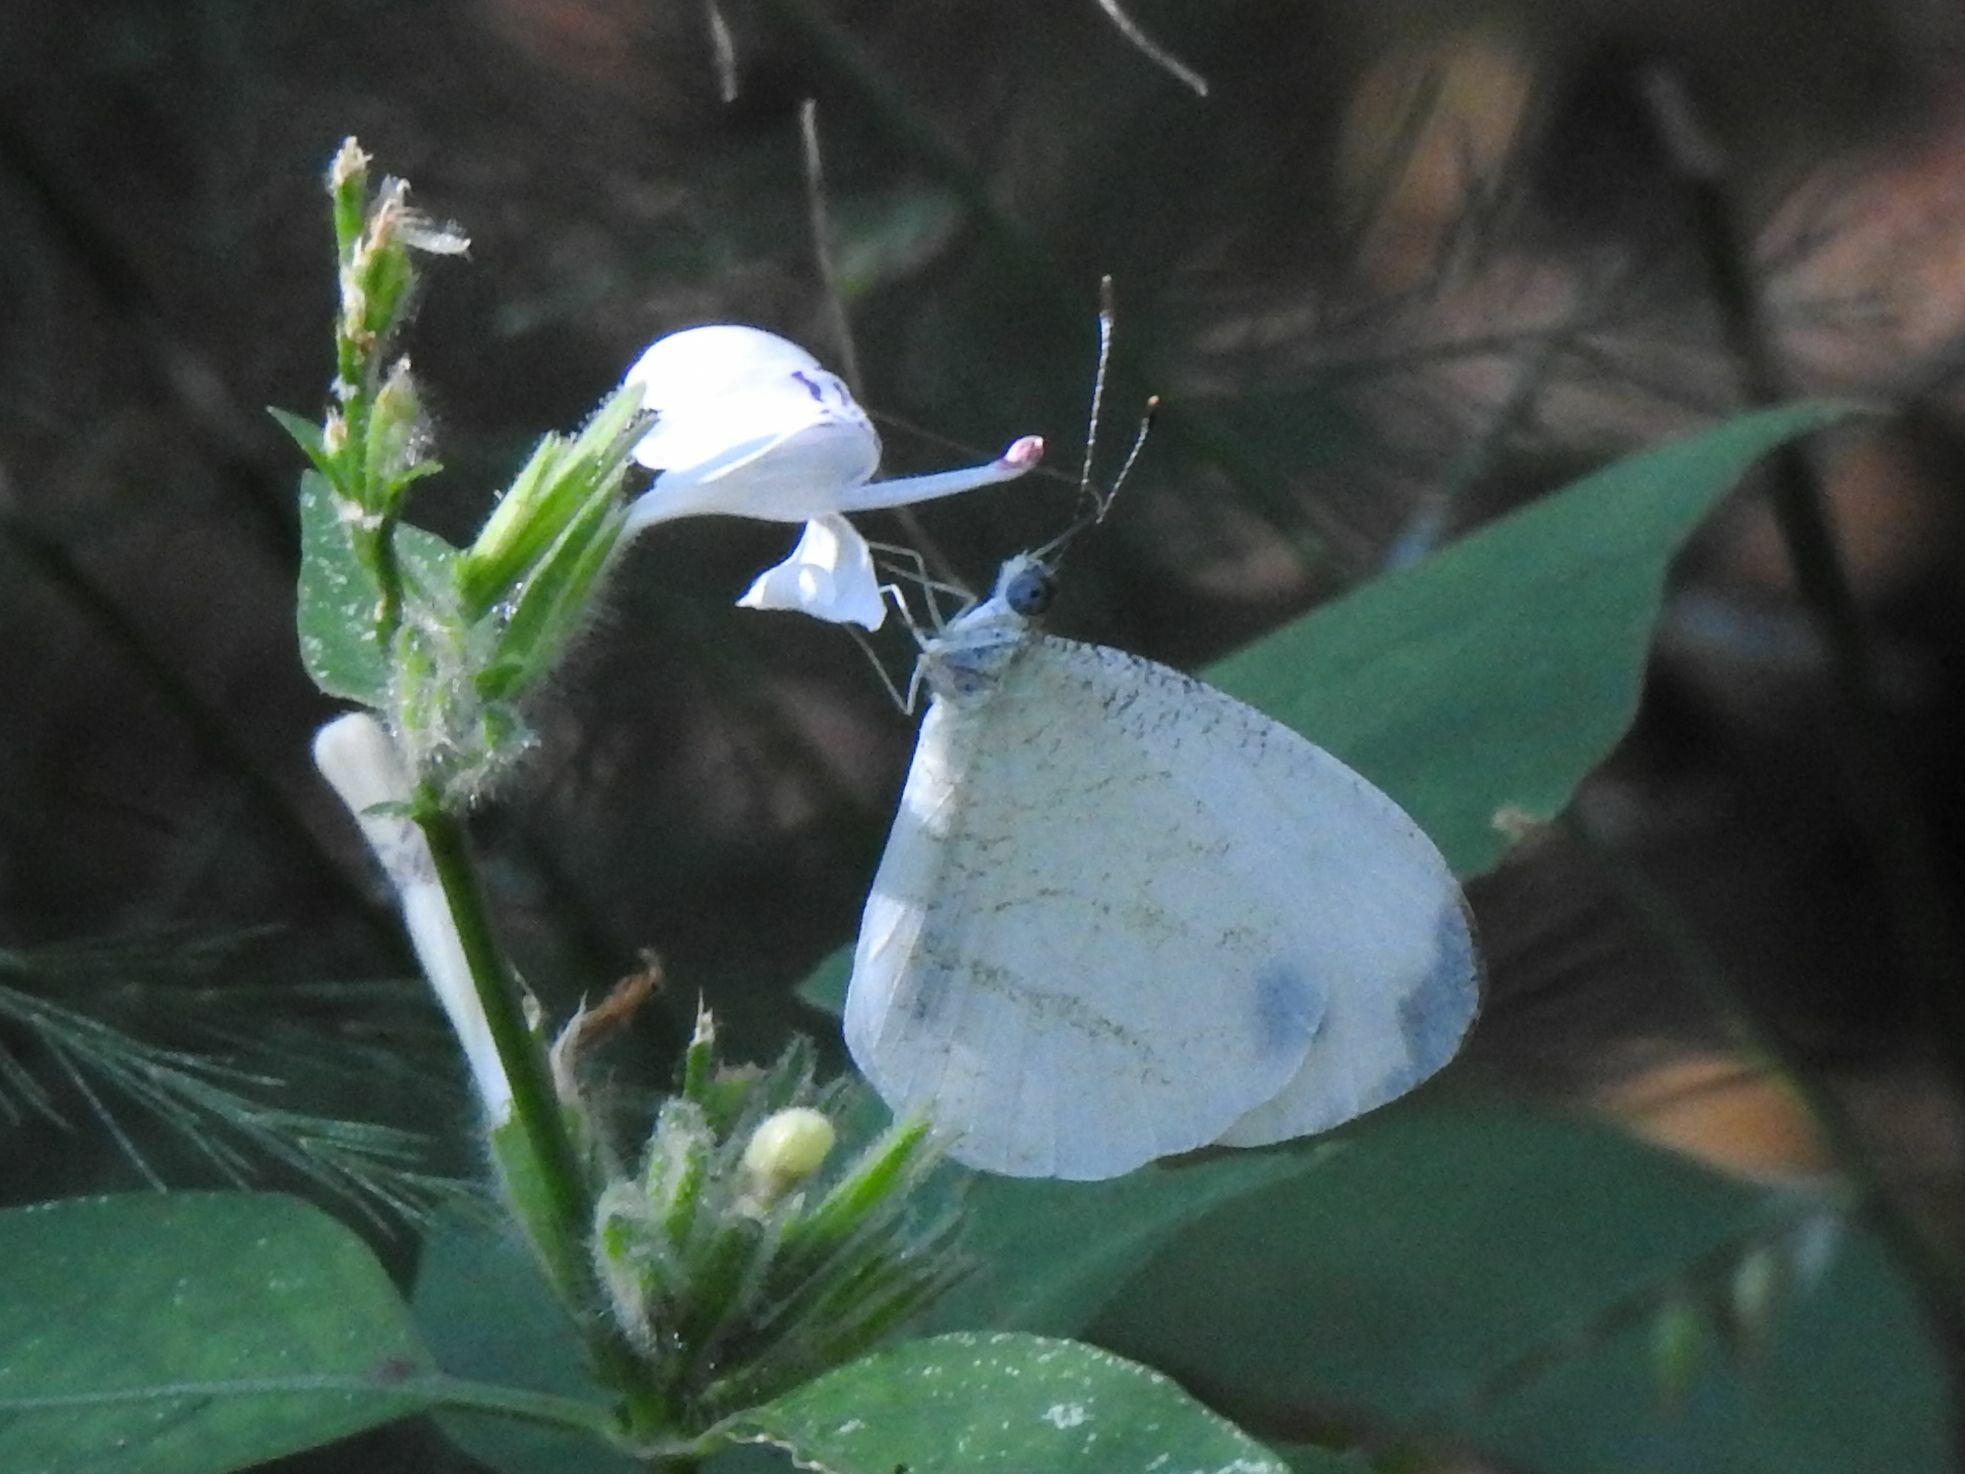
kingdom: Animalia
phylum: Arthropoda
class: Insecta
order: Lepidoptera
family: Pieridae
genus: Leptosia
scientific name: Leptosia alcesta
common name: African wood white
